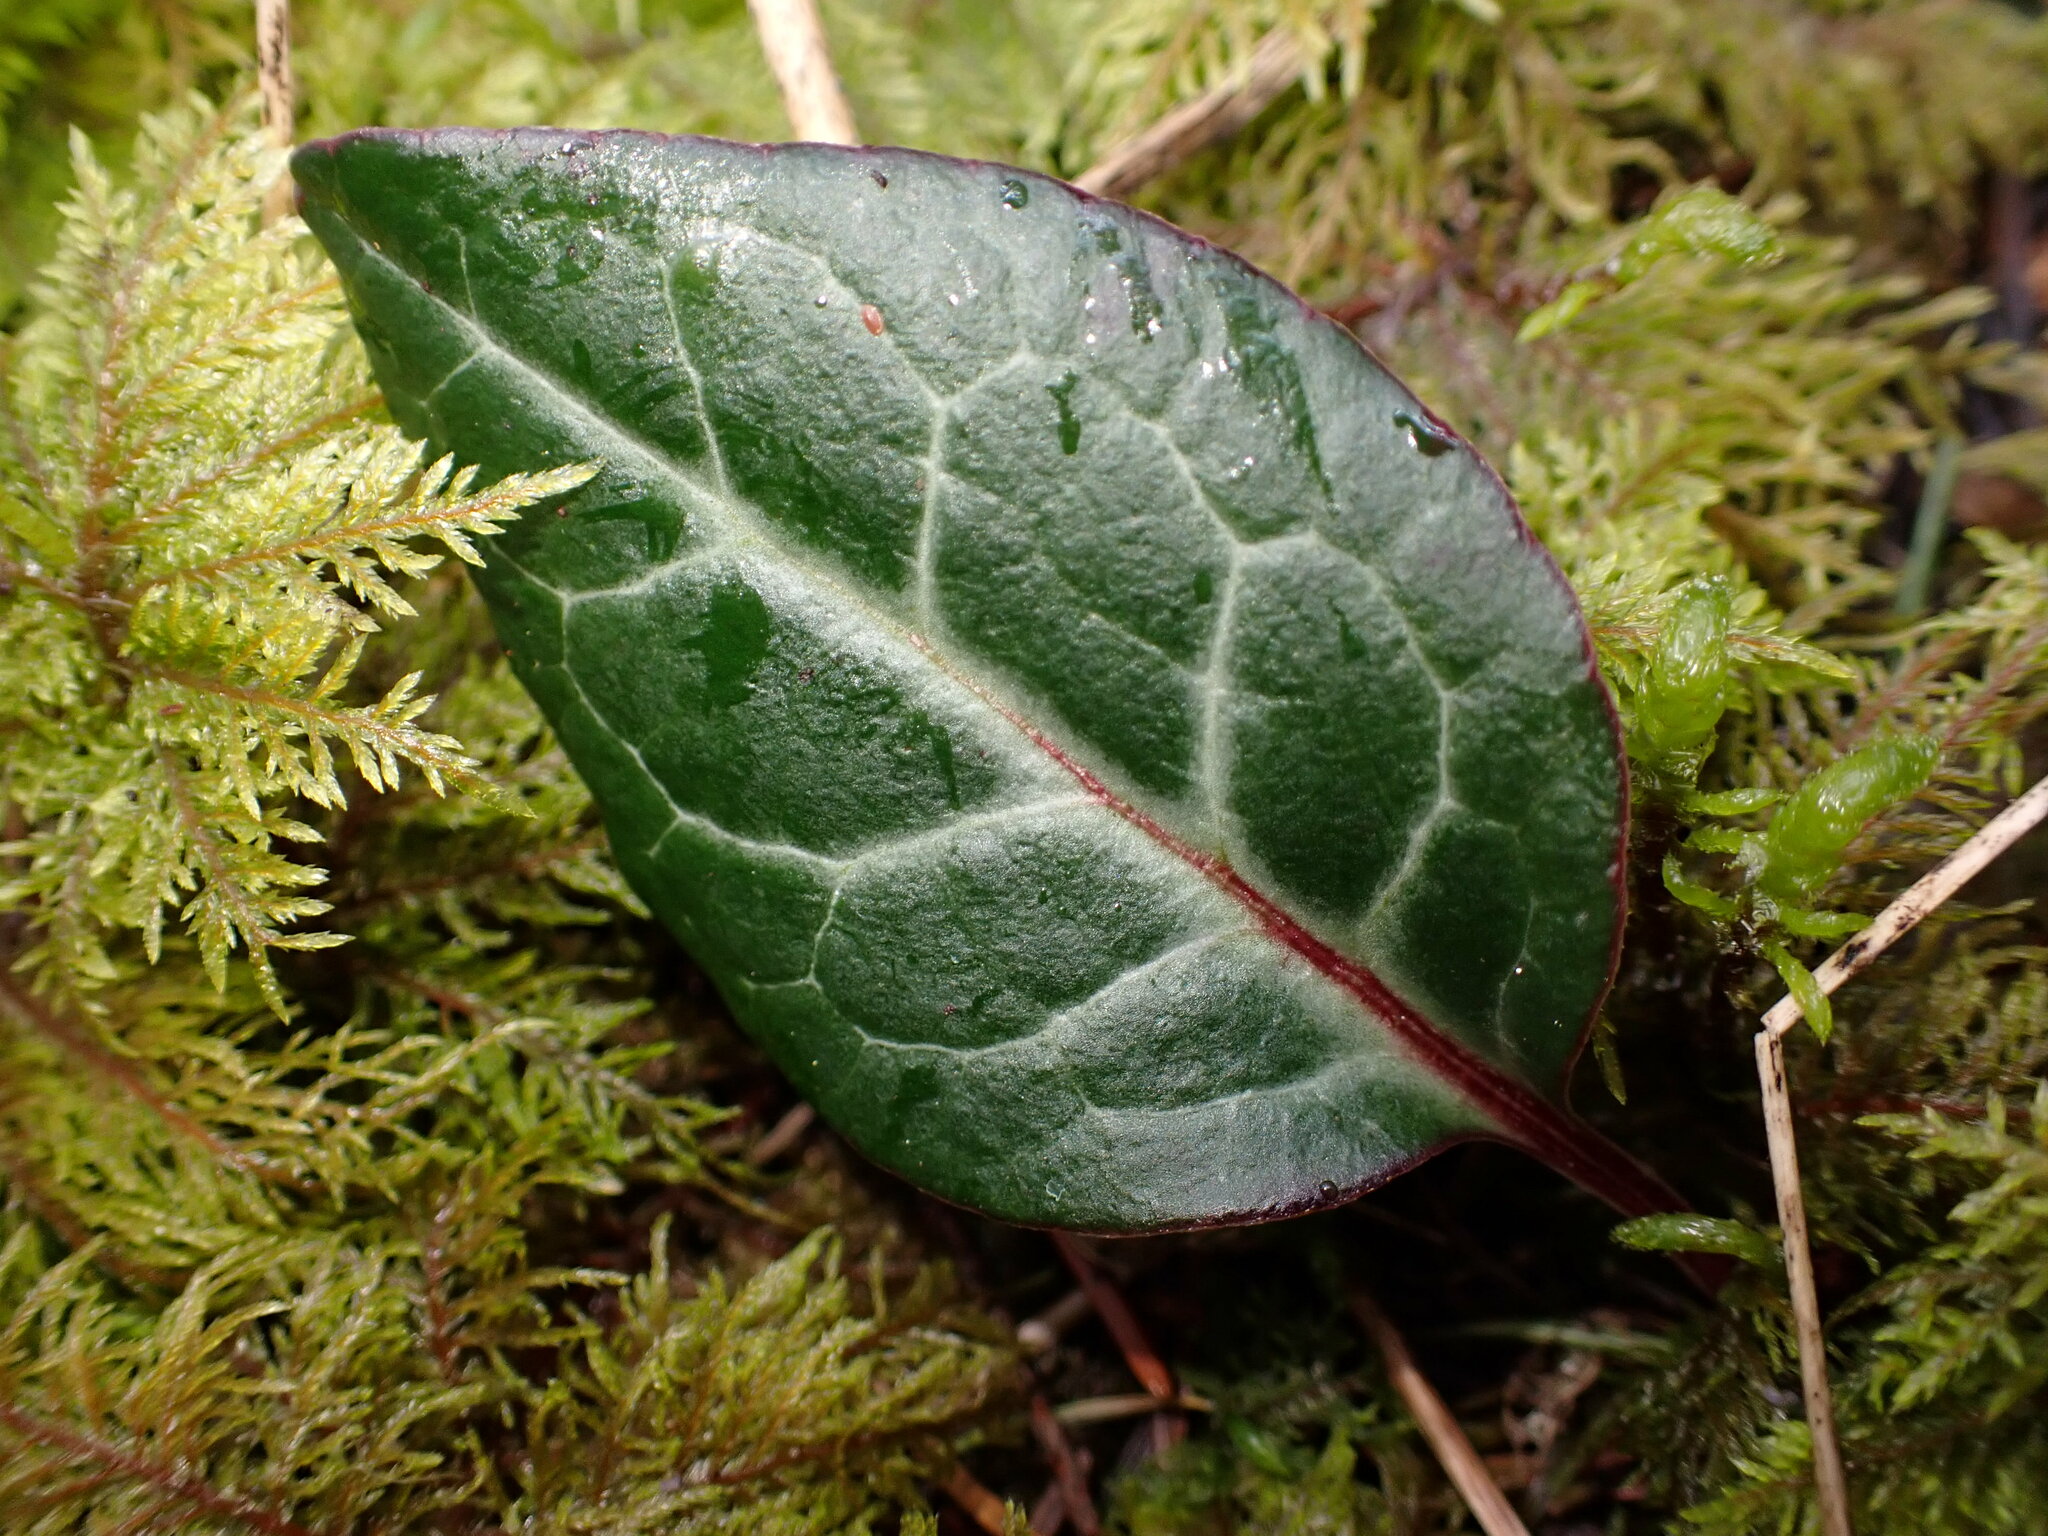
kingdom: Plantae
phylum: Tracheophyta
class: Magnoliopsida
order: Ericales
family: Ericaceae
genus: Pyrola
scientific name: Pyrola picta
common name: White-vein wintergreen
